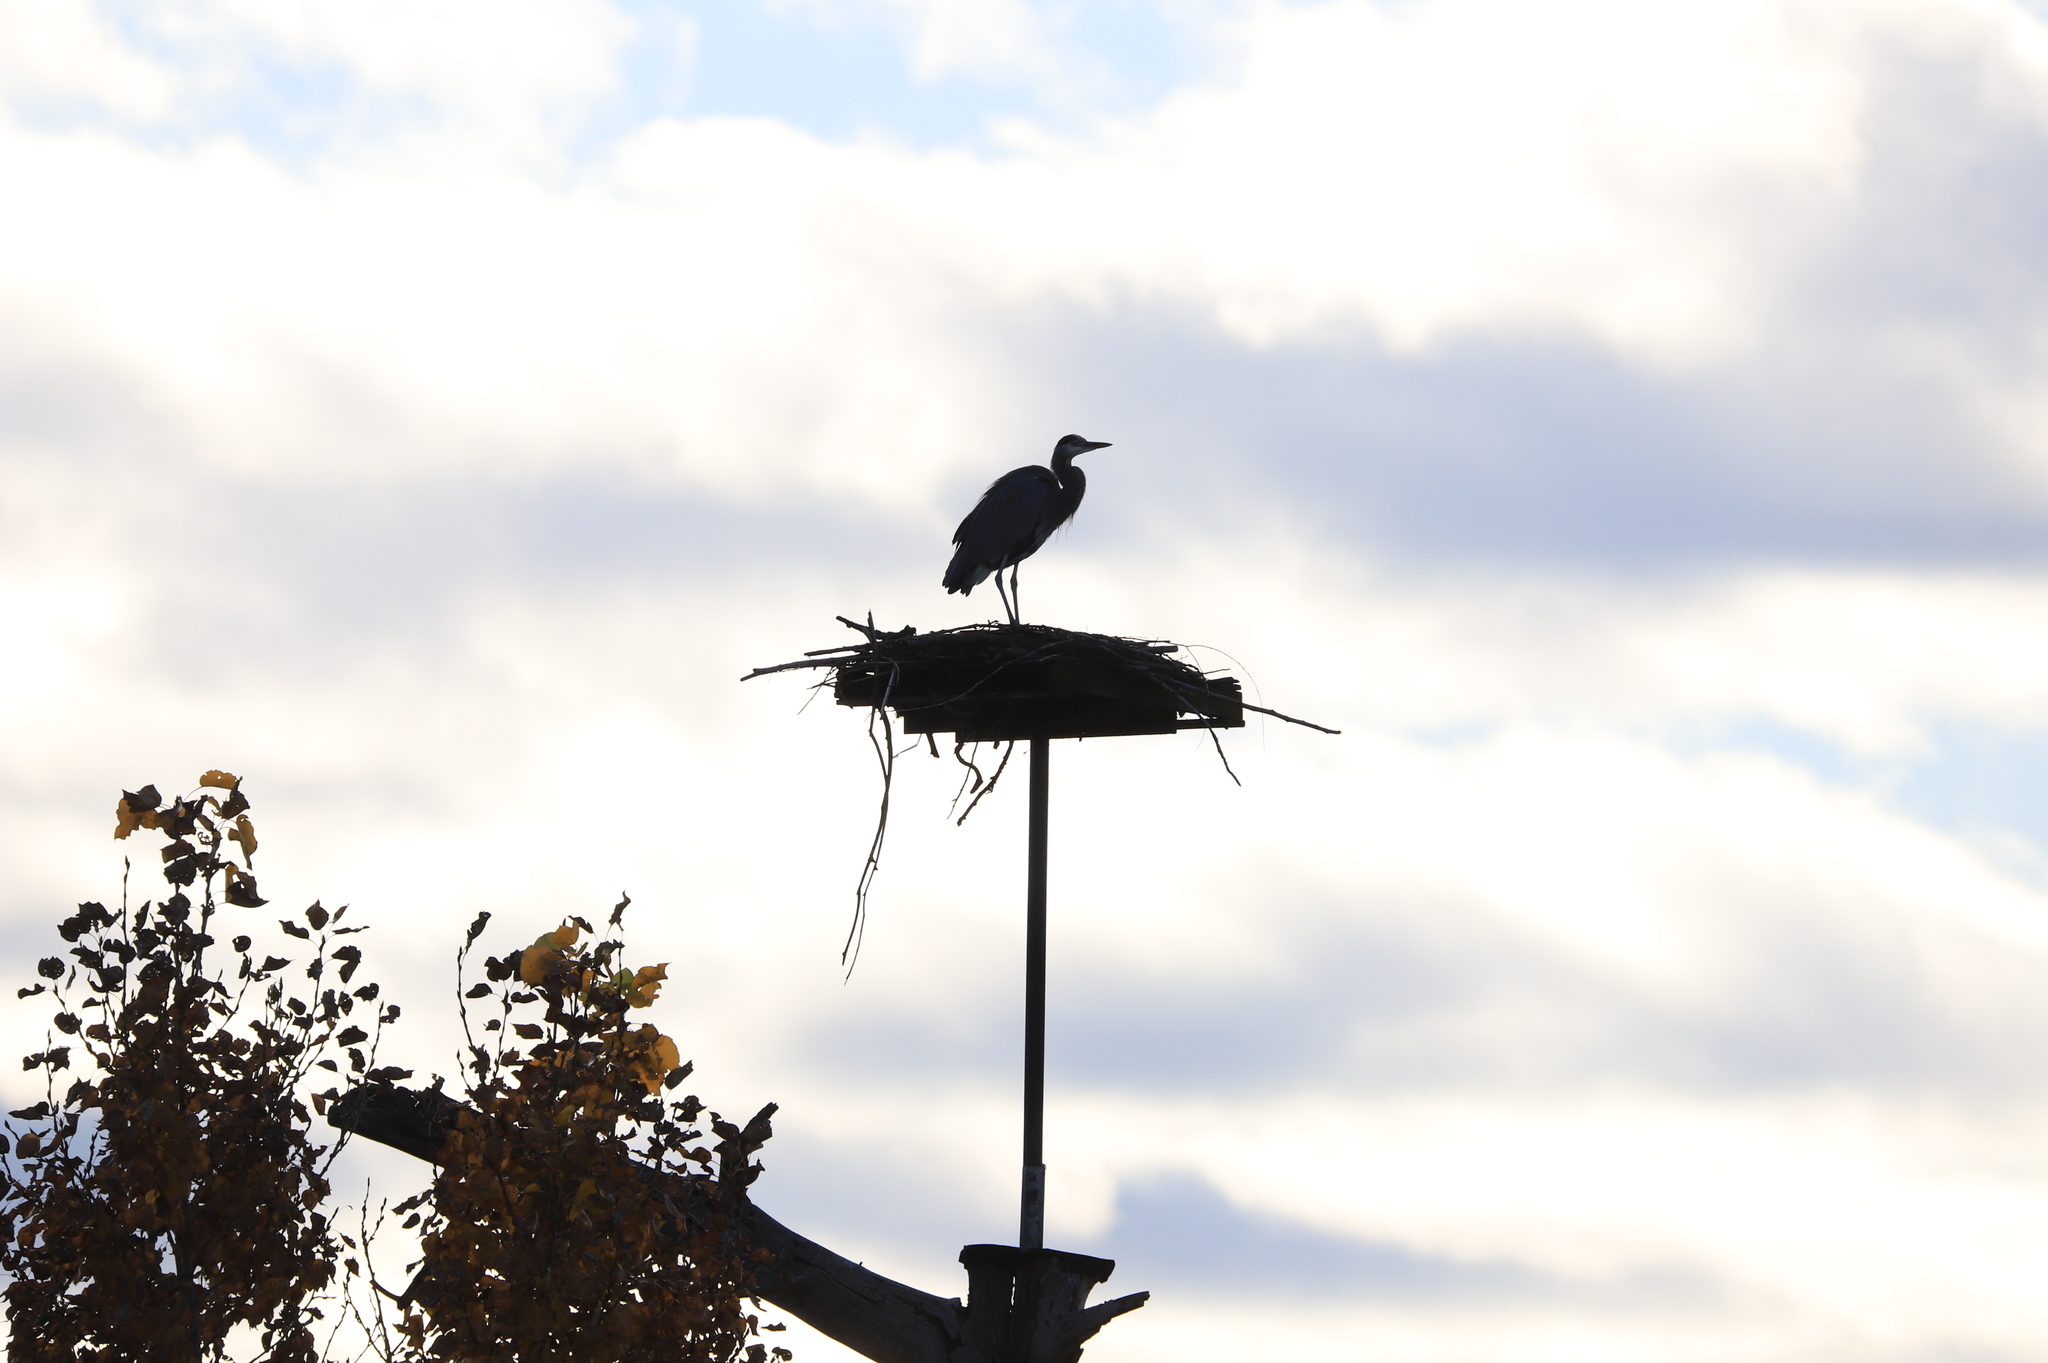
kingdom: Animalia
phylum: Chordata
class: Aves
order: Pelecaniformes
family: Ardeidae
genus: Ardea
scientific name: Ardea herodias
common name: Great blue heron
